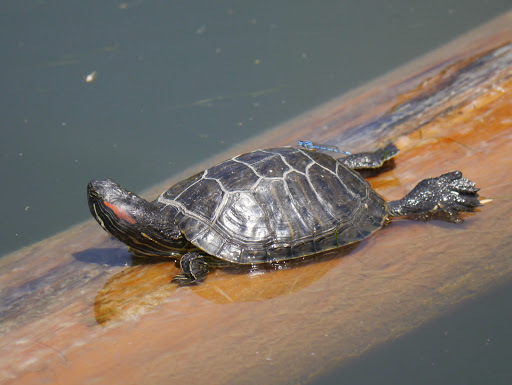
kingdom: Animalia
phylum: Chordata
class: Testudines
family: Emydidae
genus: Trachemys
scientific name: Trachemys scripta
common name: Slider
